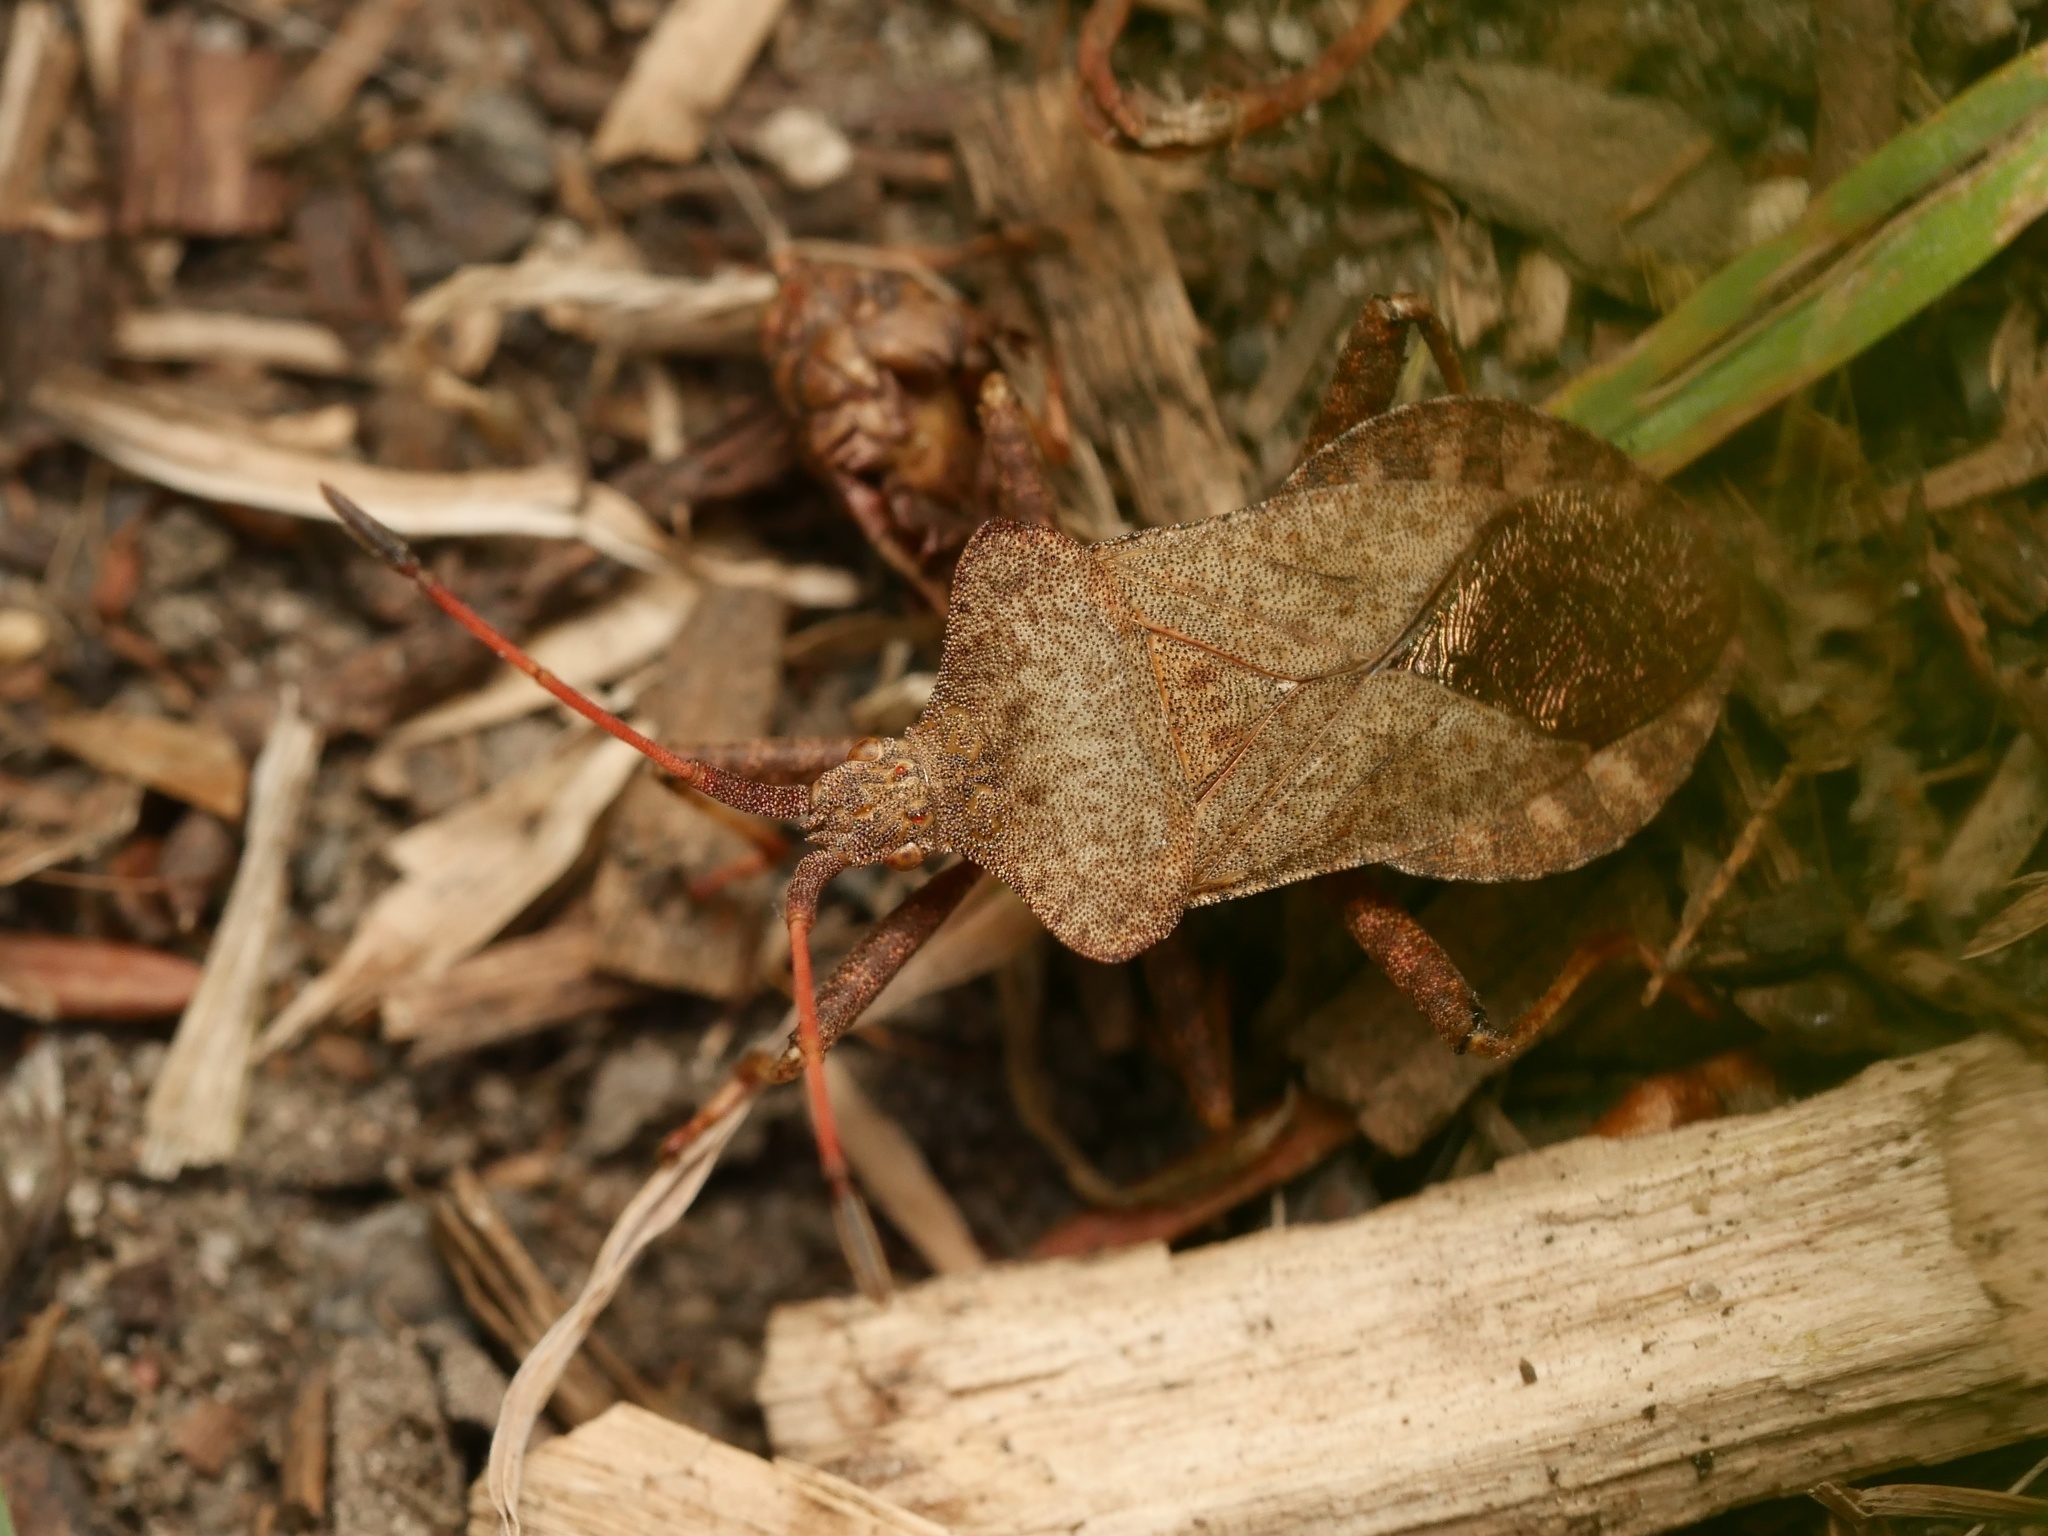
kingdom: Animalia
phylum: Arthropoda
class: Insecta
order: Hemiptera
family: Coreidae
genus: Coreus
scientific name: Coreus marginatus
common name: Dock bug
